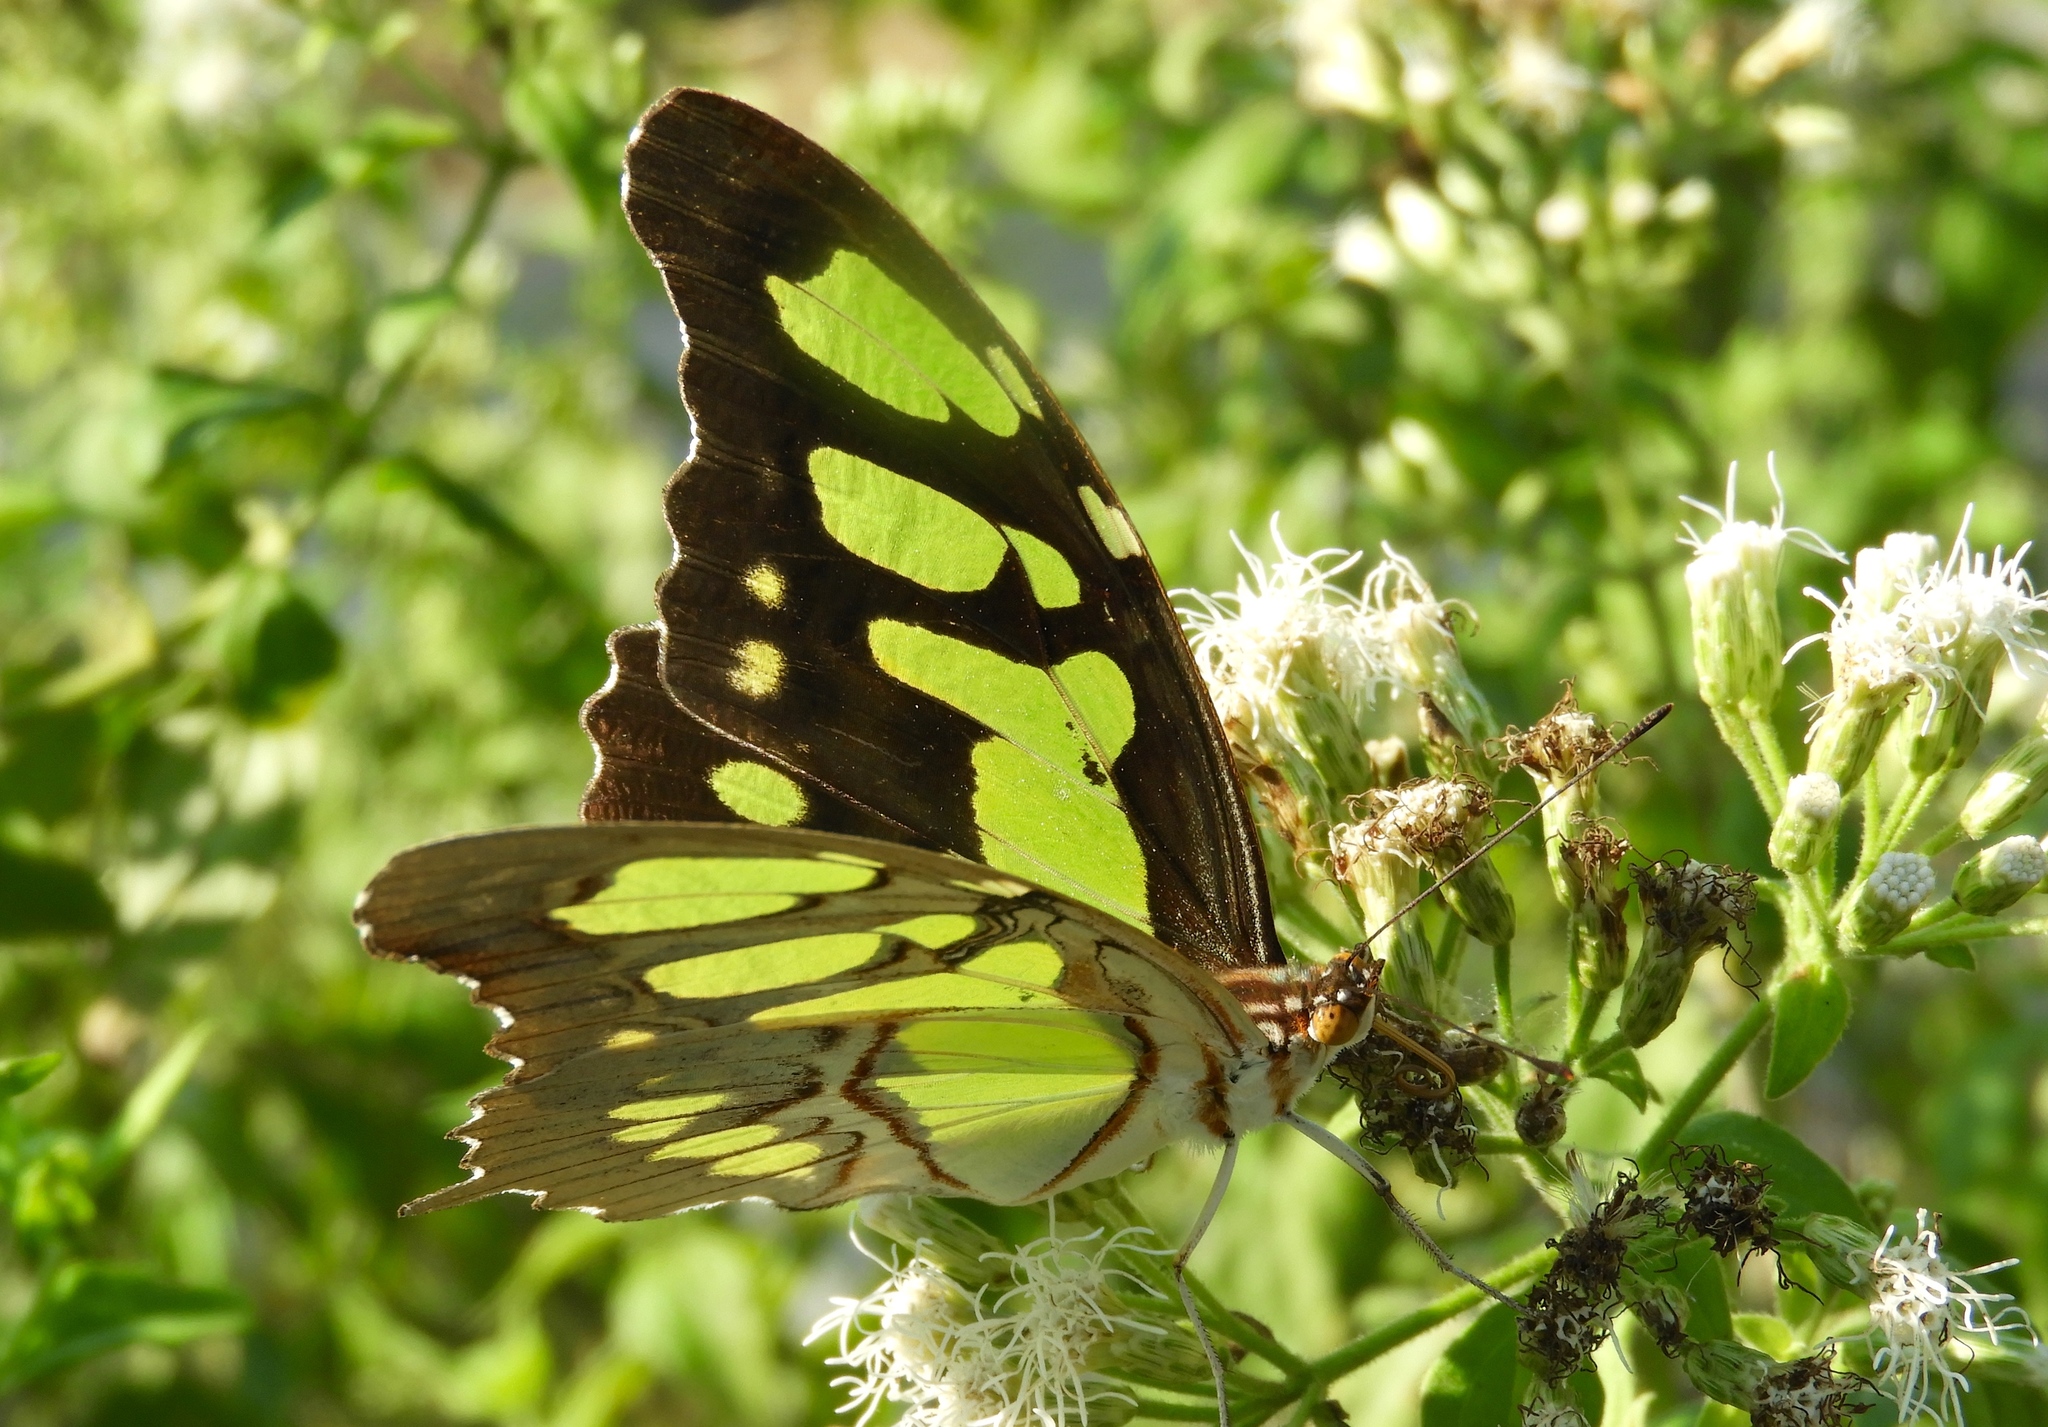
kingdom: Animalia
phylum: Arthropoda
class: Insecta
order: Lepidoptera
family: Nymphalidae
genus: Siproeta
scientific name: Siproeta stelenes
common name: Malachite
